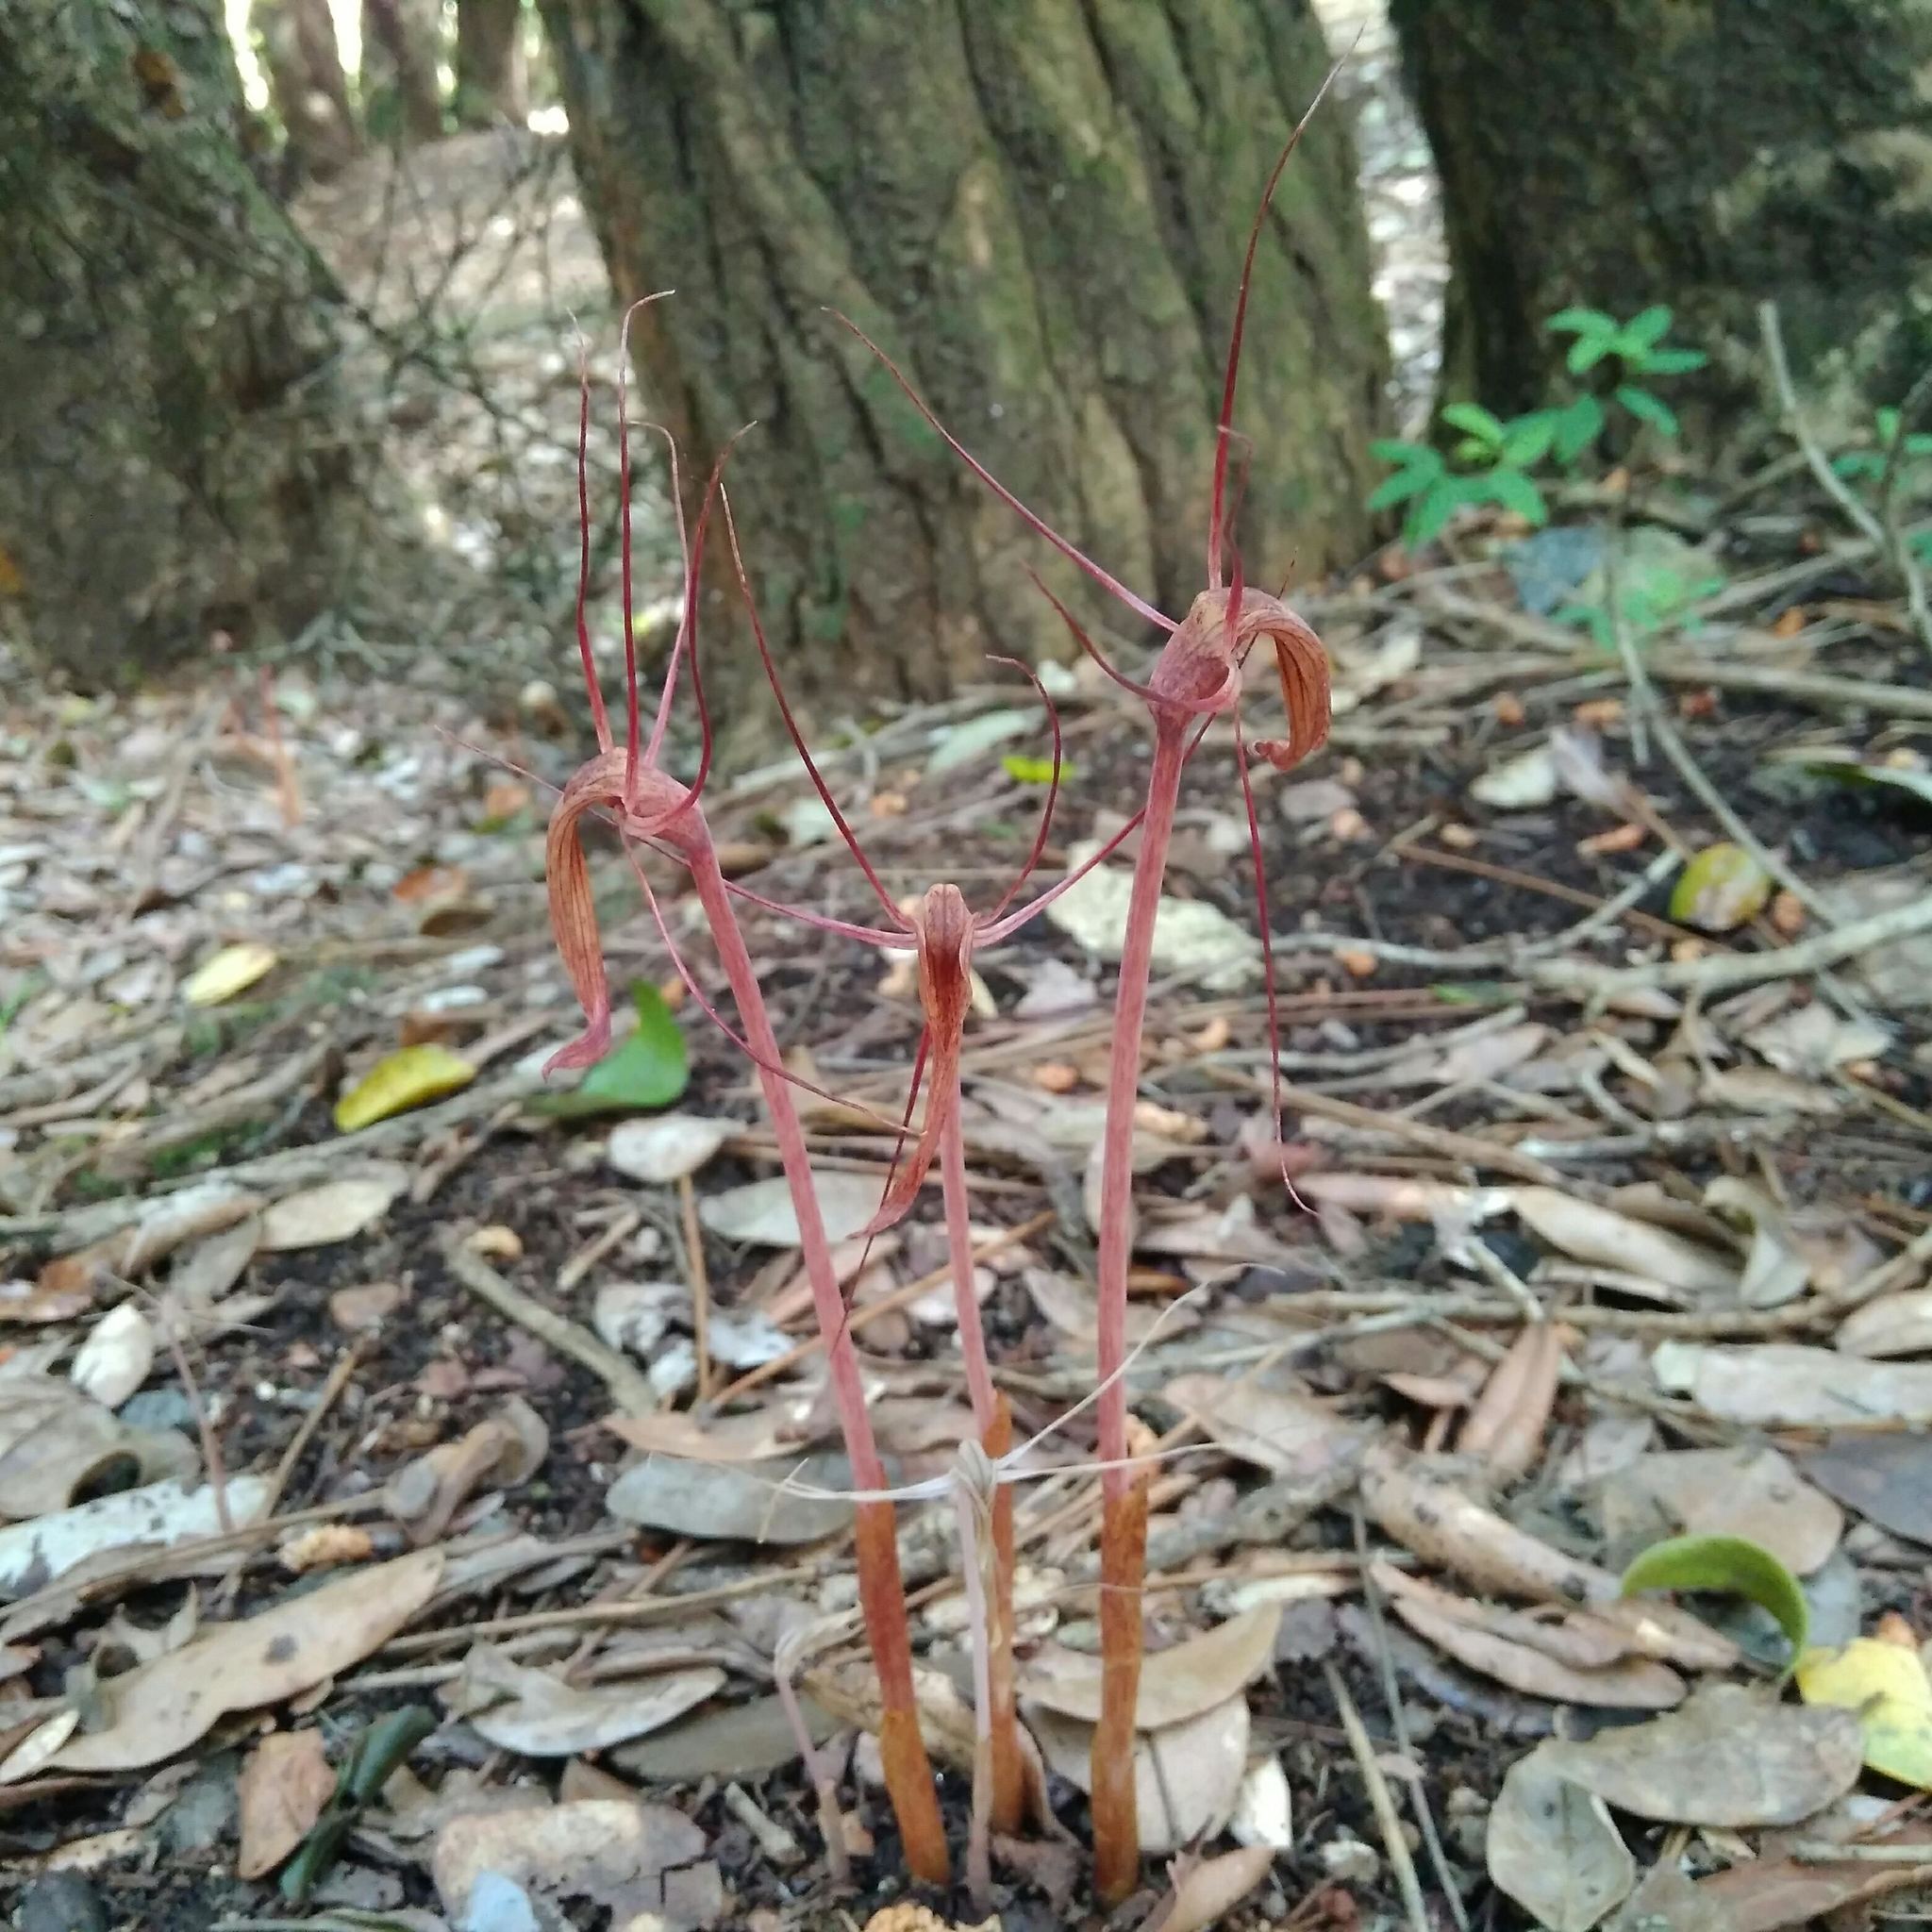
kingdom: Plantae
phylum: Tracheophyta
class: Liliopsida
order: Liliales
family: Corsiaceae
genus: Arachnitis
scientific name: Arachnitis uniflora
